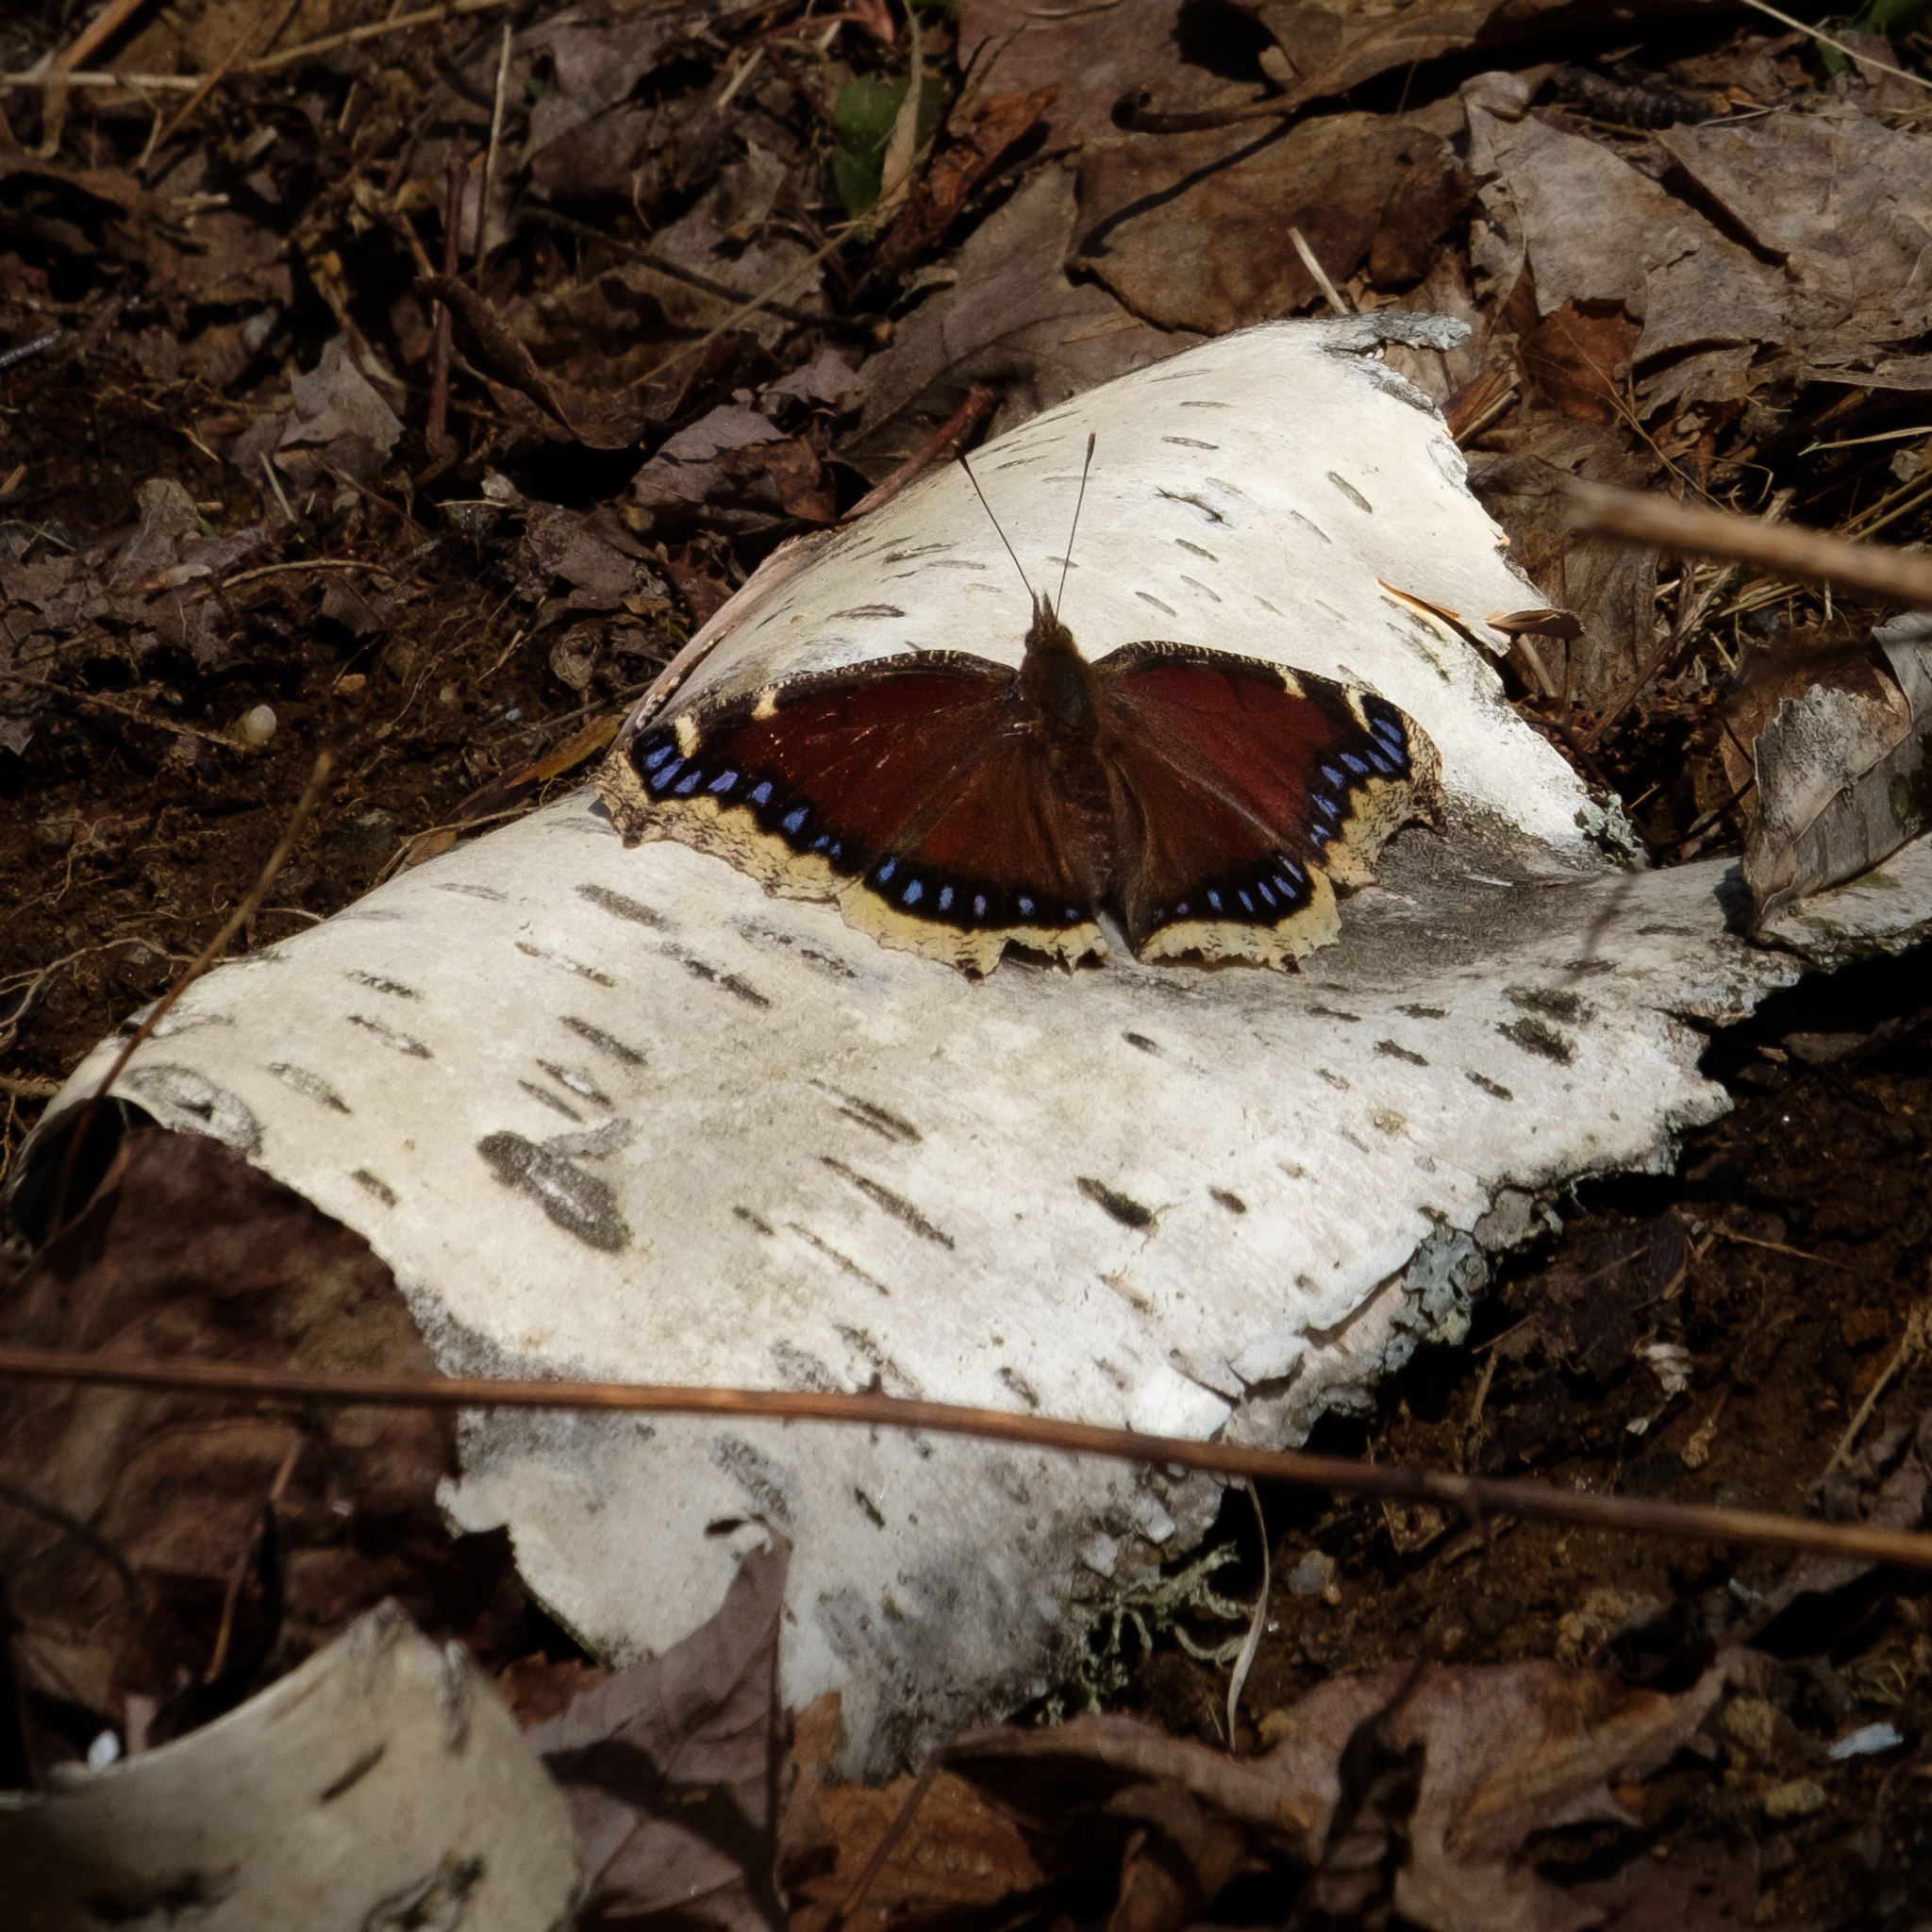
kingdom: Animalia
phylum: Arthropoda
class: Insecta
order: Lepidoptera
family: Nymphalidae
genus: Nymphalis
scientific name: Nymphalis antiopa
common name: Camberwell beauty
